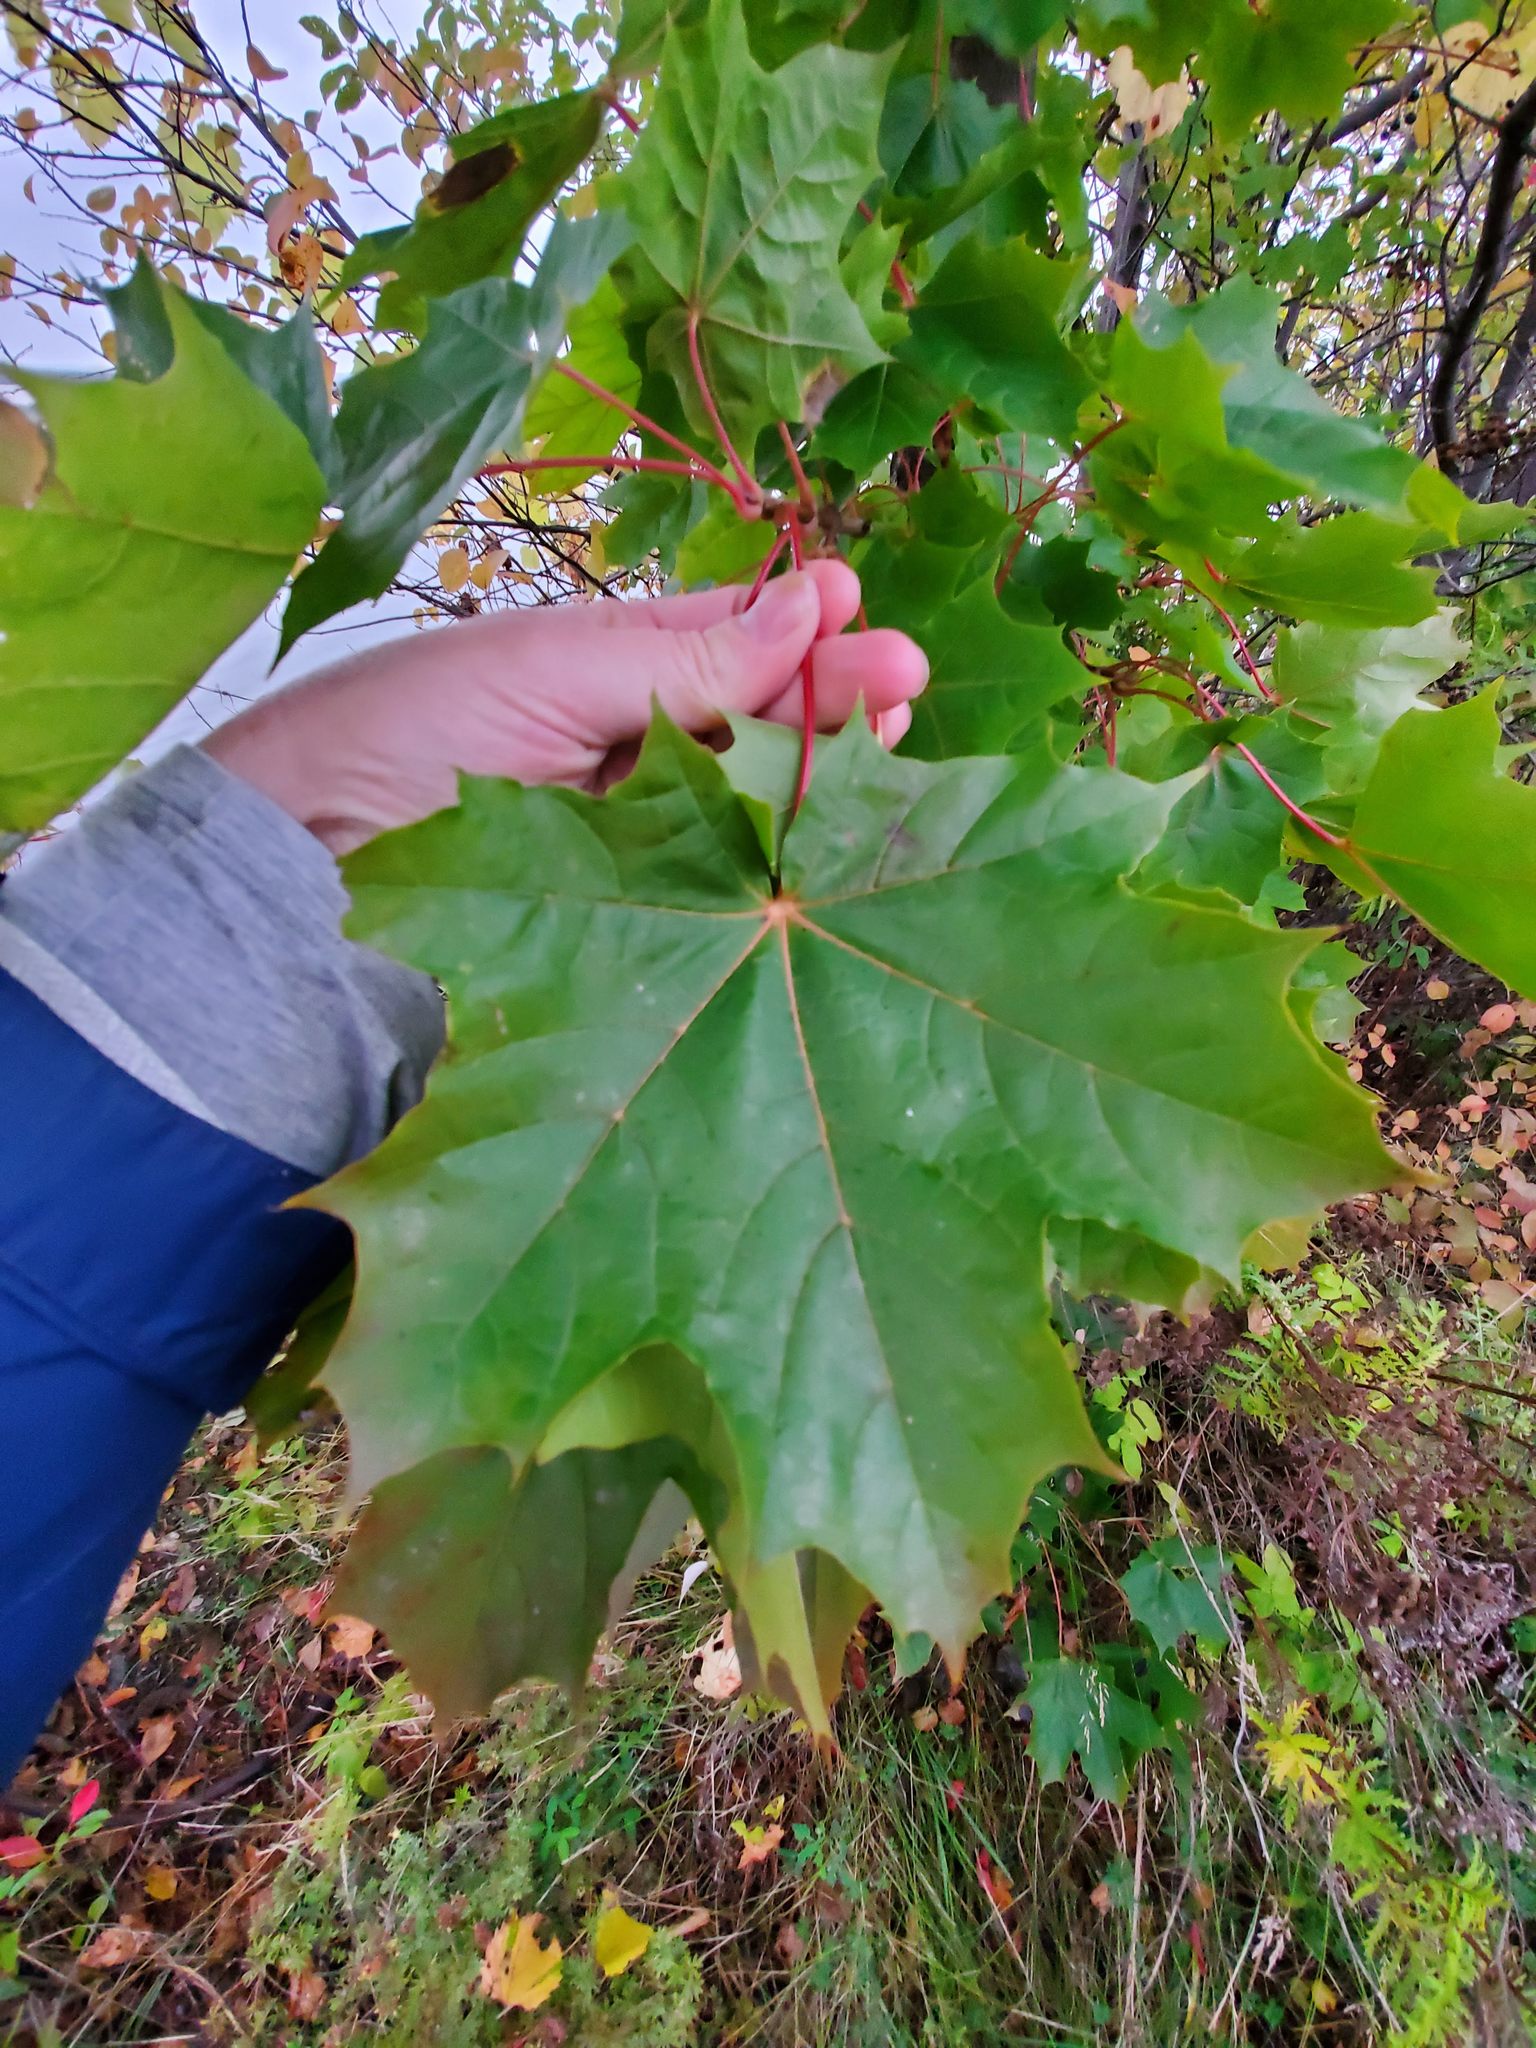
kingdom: Plantae
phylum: Tracheophyta
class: Magnoliopsida
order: Sapindales
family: Sapindaceae
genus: Acer
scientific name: Acer platanoides
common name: Norway maple
